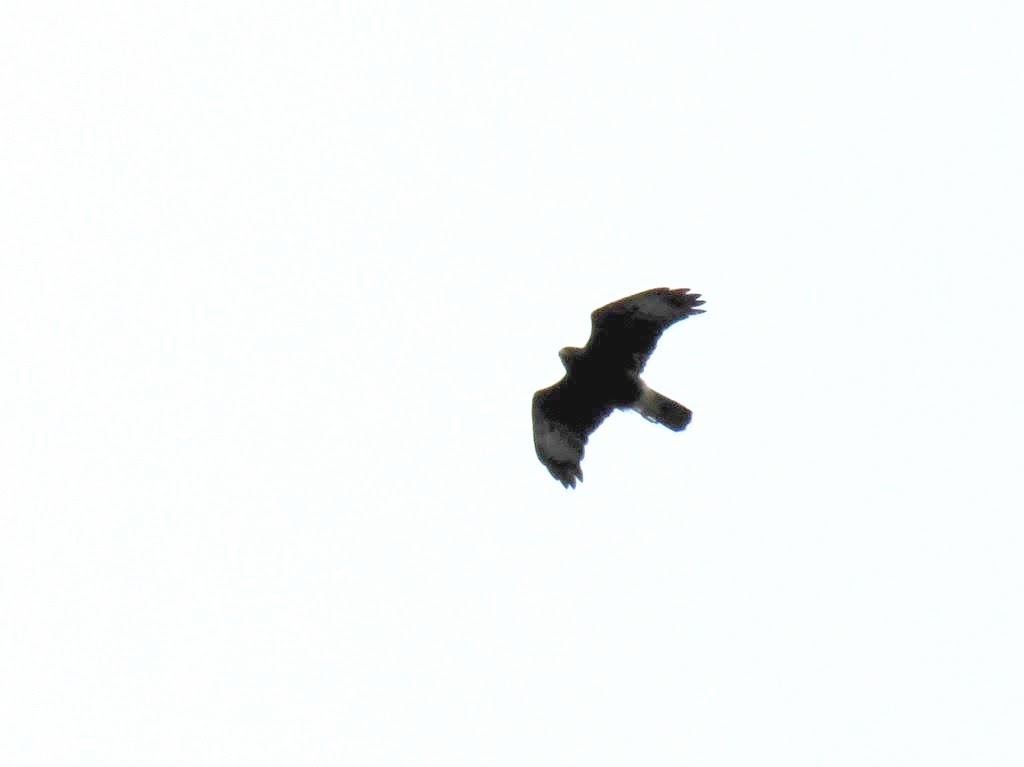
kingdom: Animalia
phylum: Chordata
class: Aves
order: Accipitriformes
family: Accipitridae
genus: Parabuteo
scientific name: Parabuteo unicinctus
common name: Harris's hawk
